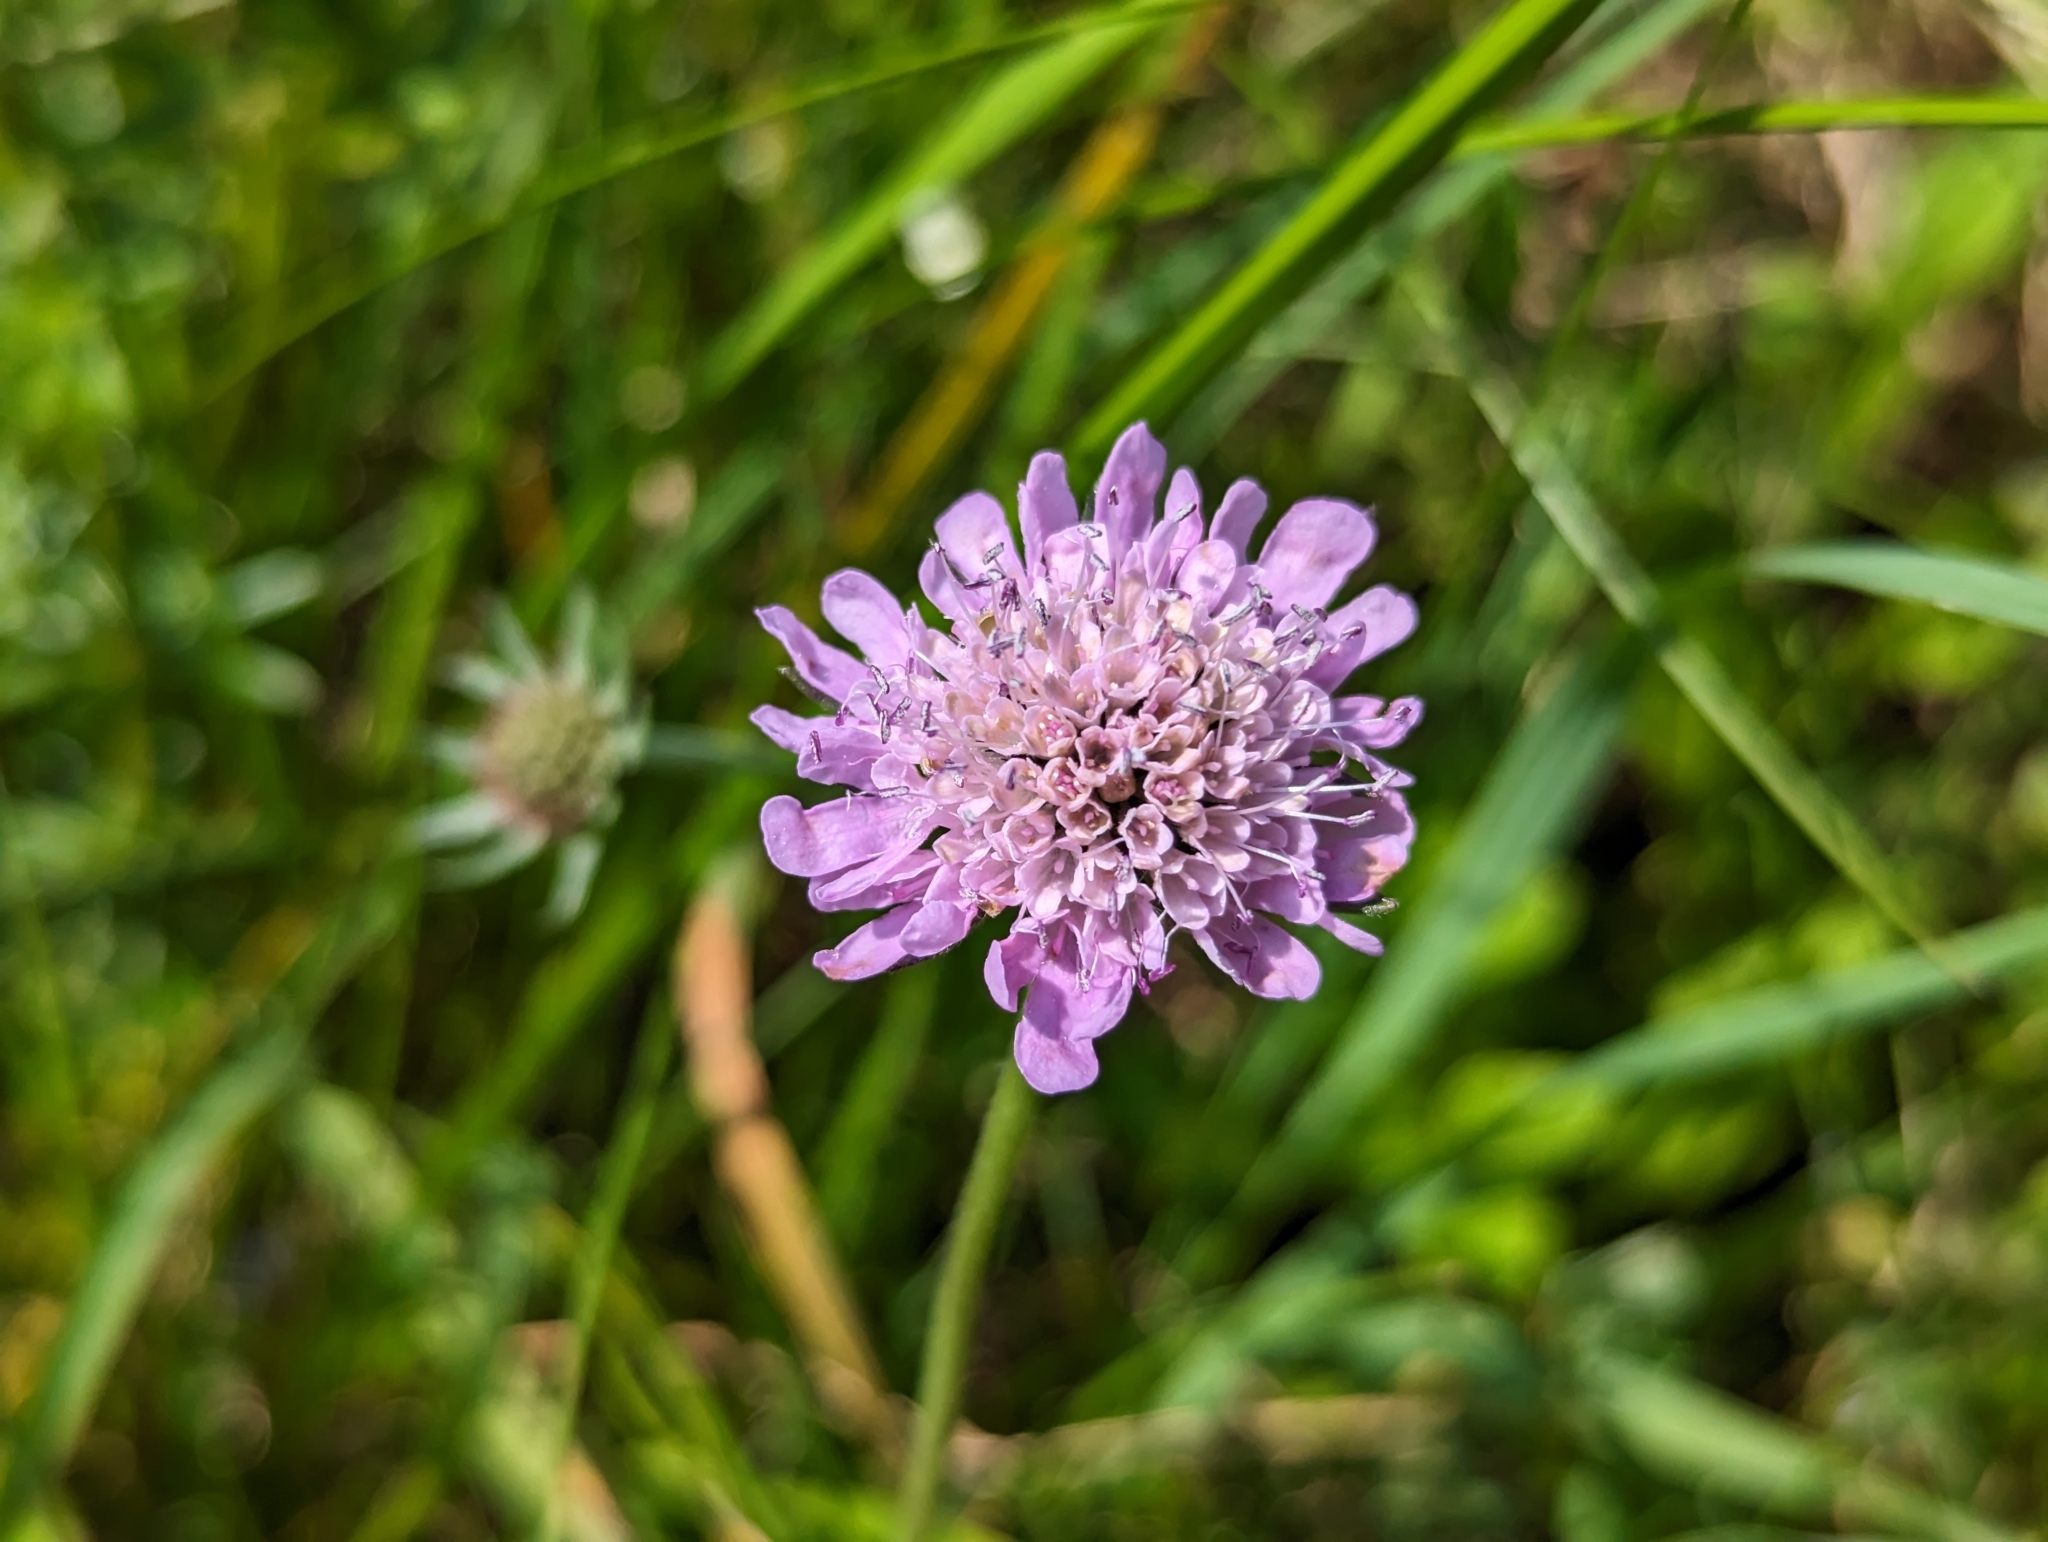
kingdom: Plantae
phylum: Tracheophyta
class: Magnoliopsida
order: Dipsacales
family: Caprifoliaceae
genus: Scabiosa
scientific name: Scabiosa lucida
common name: Shining scabious
